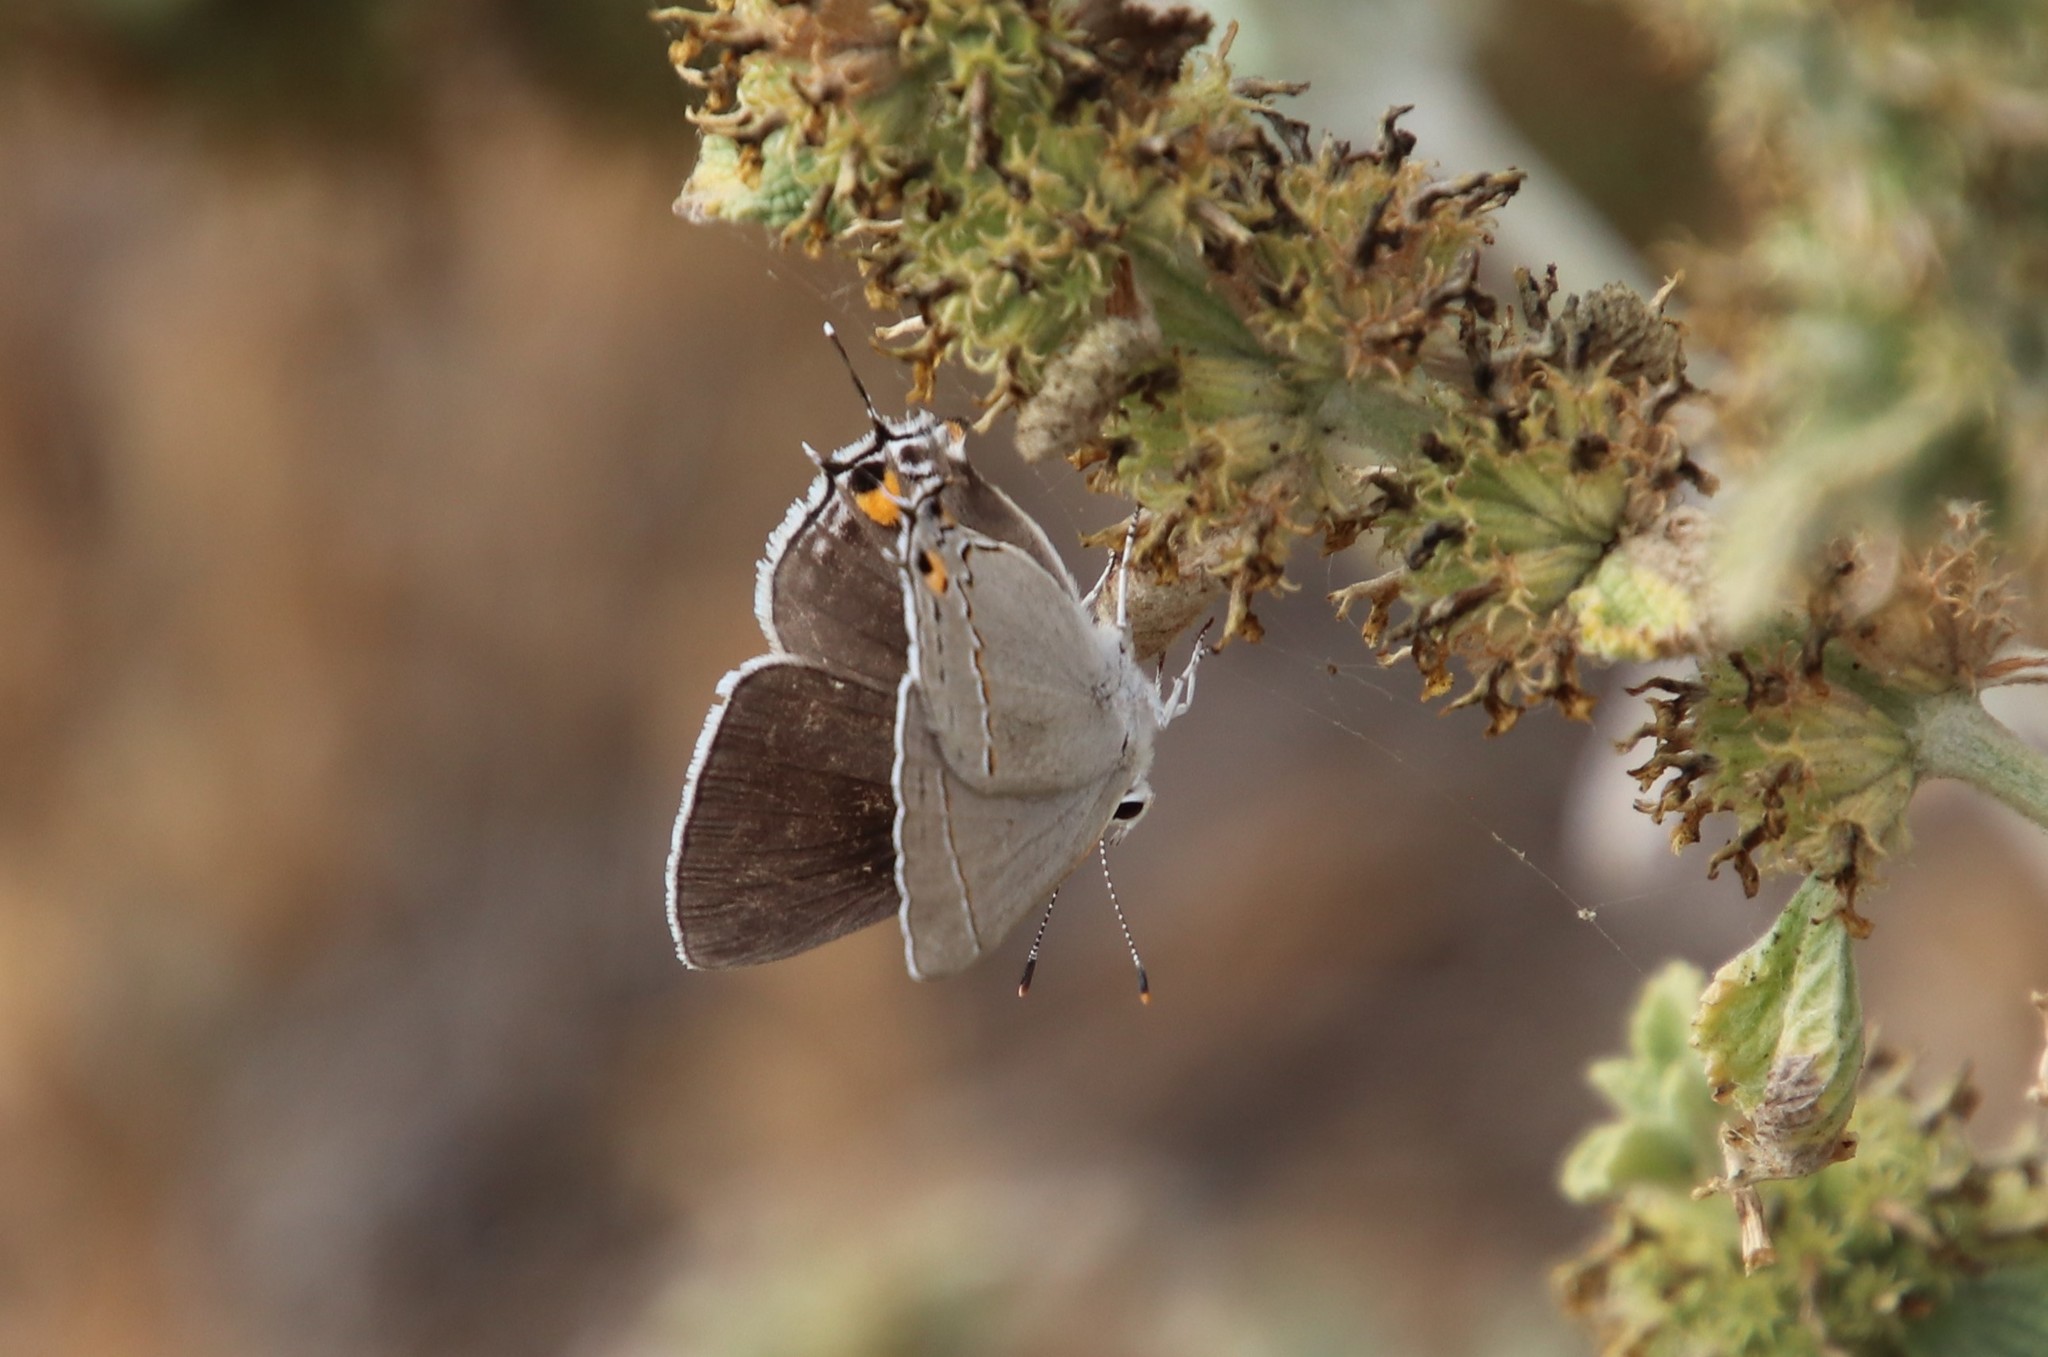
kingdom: Animalia
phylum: Arthropoda
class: Insecta
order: Lepidoptera
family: Lycaenidae
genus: Strymon
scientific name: Strymon melinus
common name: Gray hairstreak
